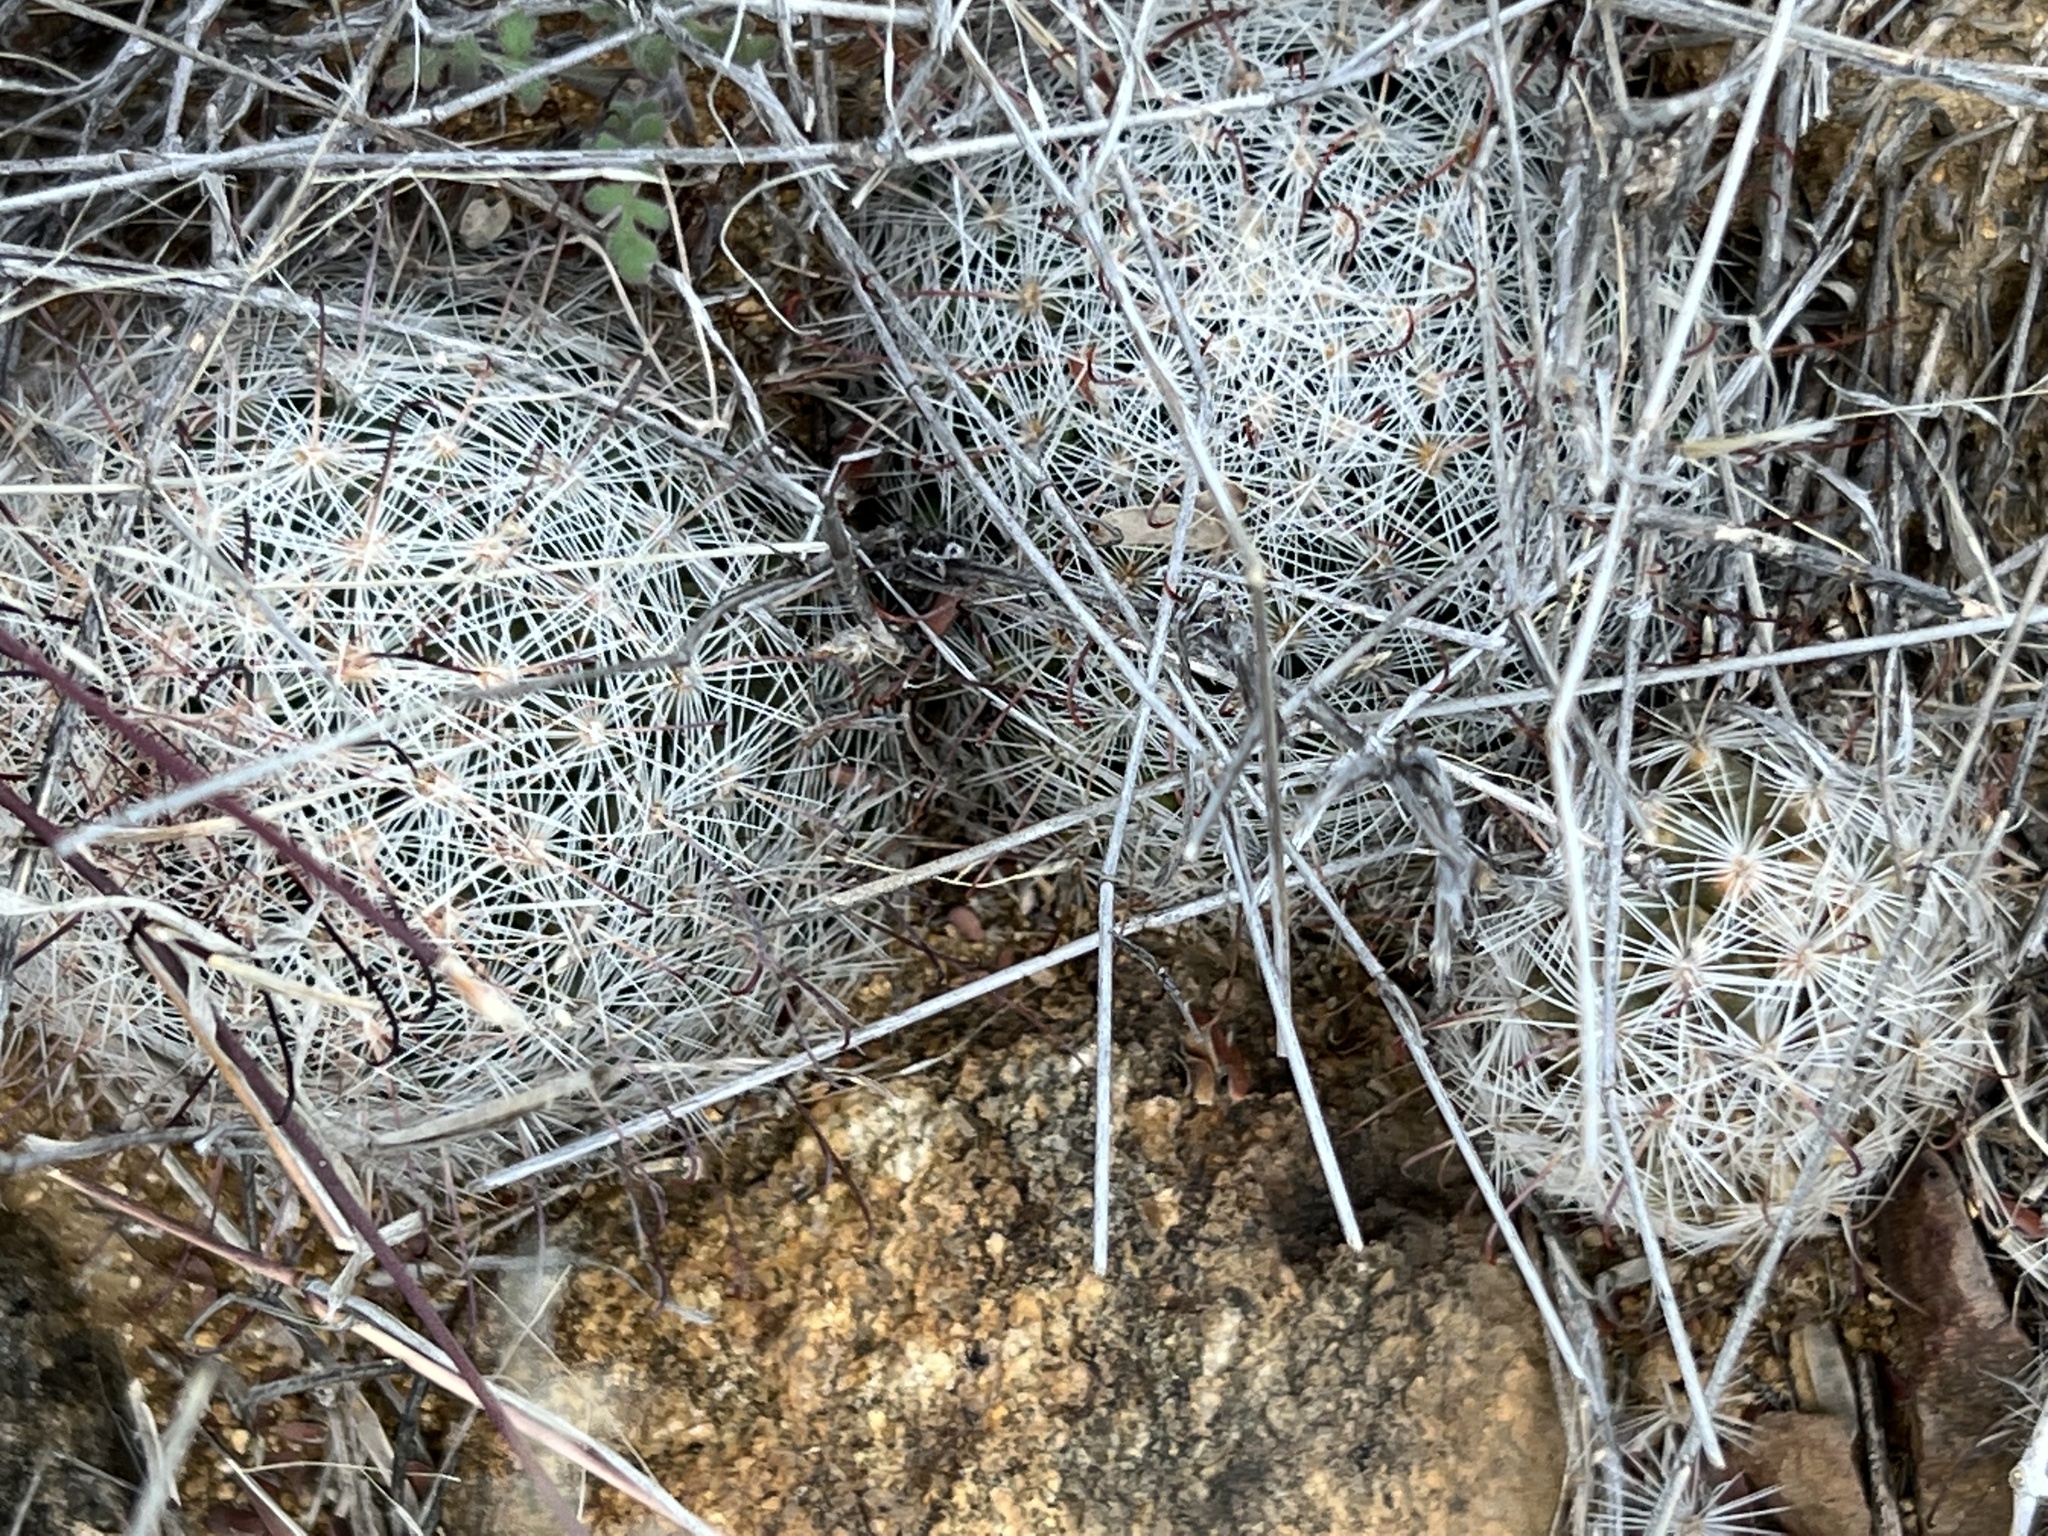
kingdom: Plantae
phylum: Tracheophyta
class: Magnoliopsida
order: Caryophyllales
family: Cactaceae
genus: Cochemiea
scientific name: Cochemiea grahamii
